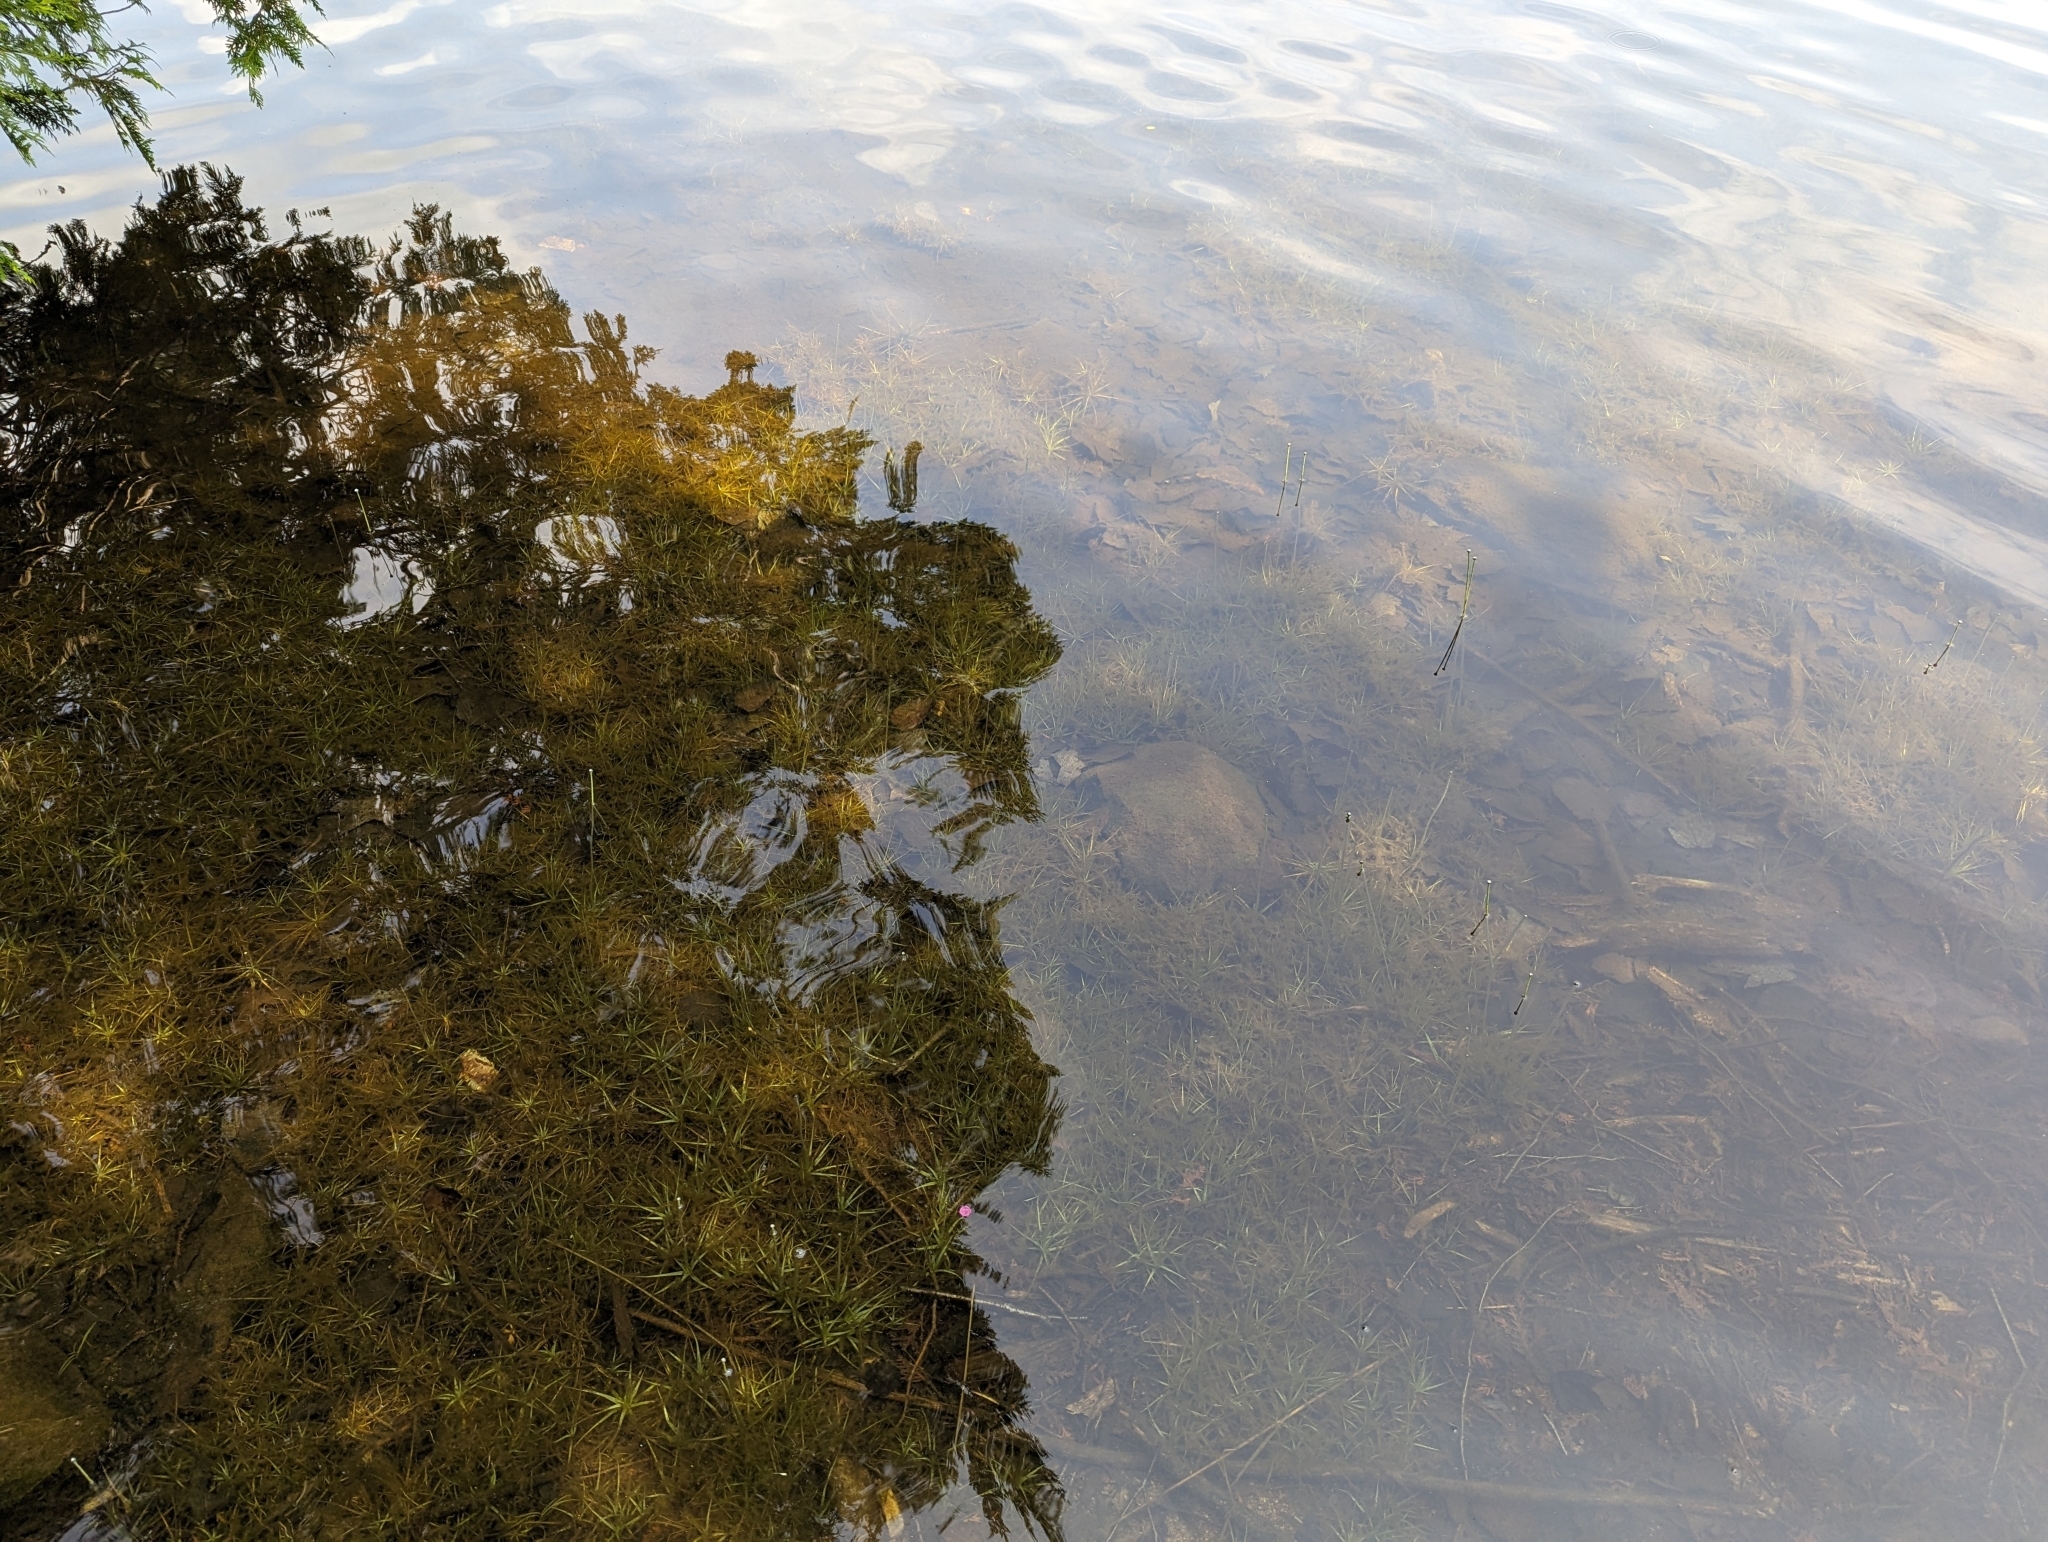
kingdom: Plantae
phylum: Tracheophyta
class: Liliopsida
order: Poales
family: Eriocaulaceae
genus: Eriocaulon
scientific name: Eriocaulon aquaticum
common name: Pipewort
